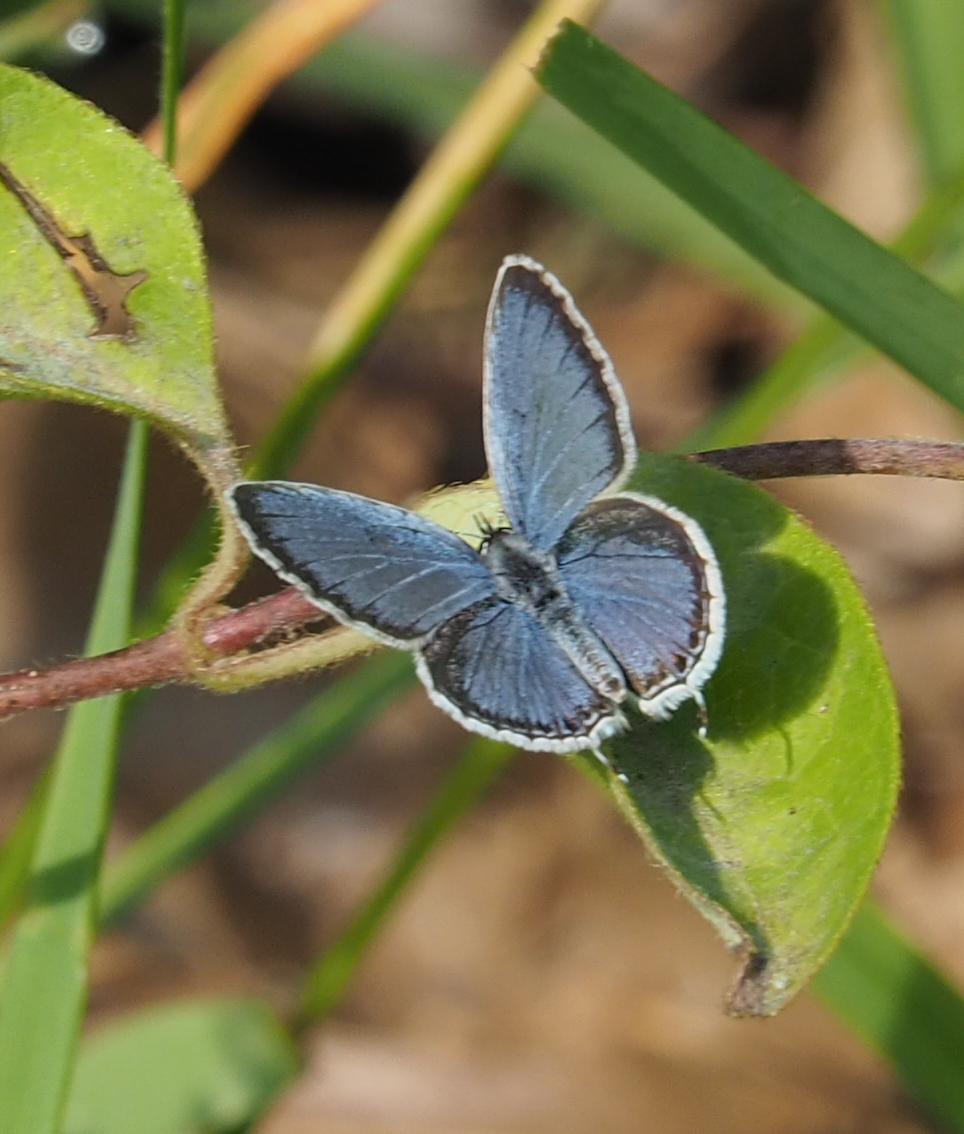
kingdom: Animalia
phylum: Arthropoda
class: Insecta
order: Lepidoptera
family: Lycaenidae
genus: Elkalyce
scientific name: Elkalyce comyntas
